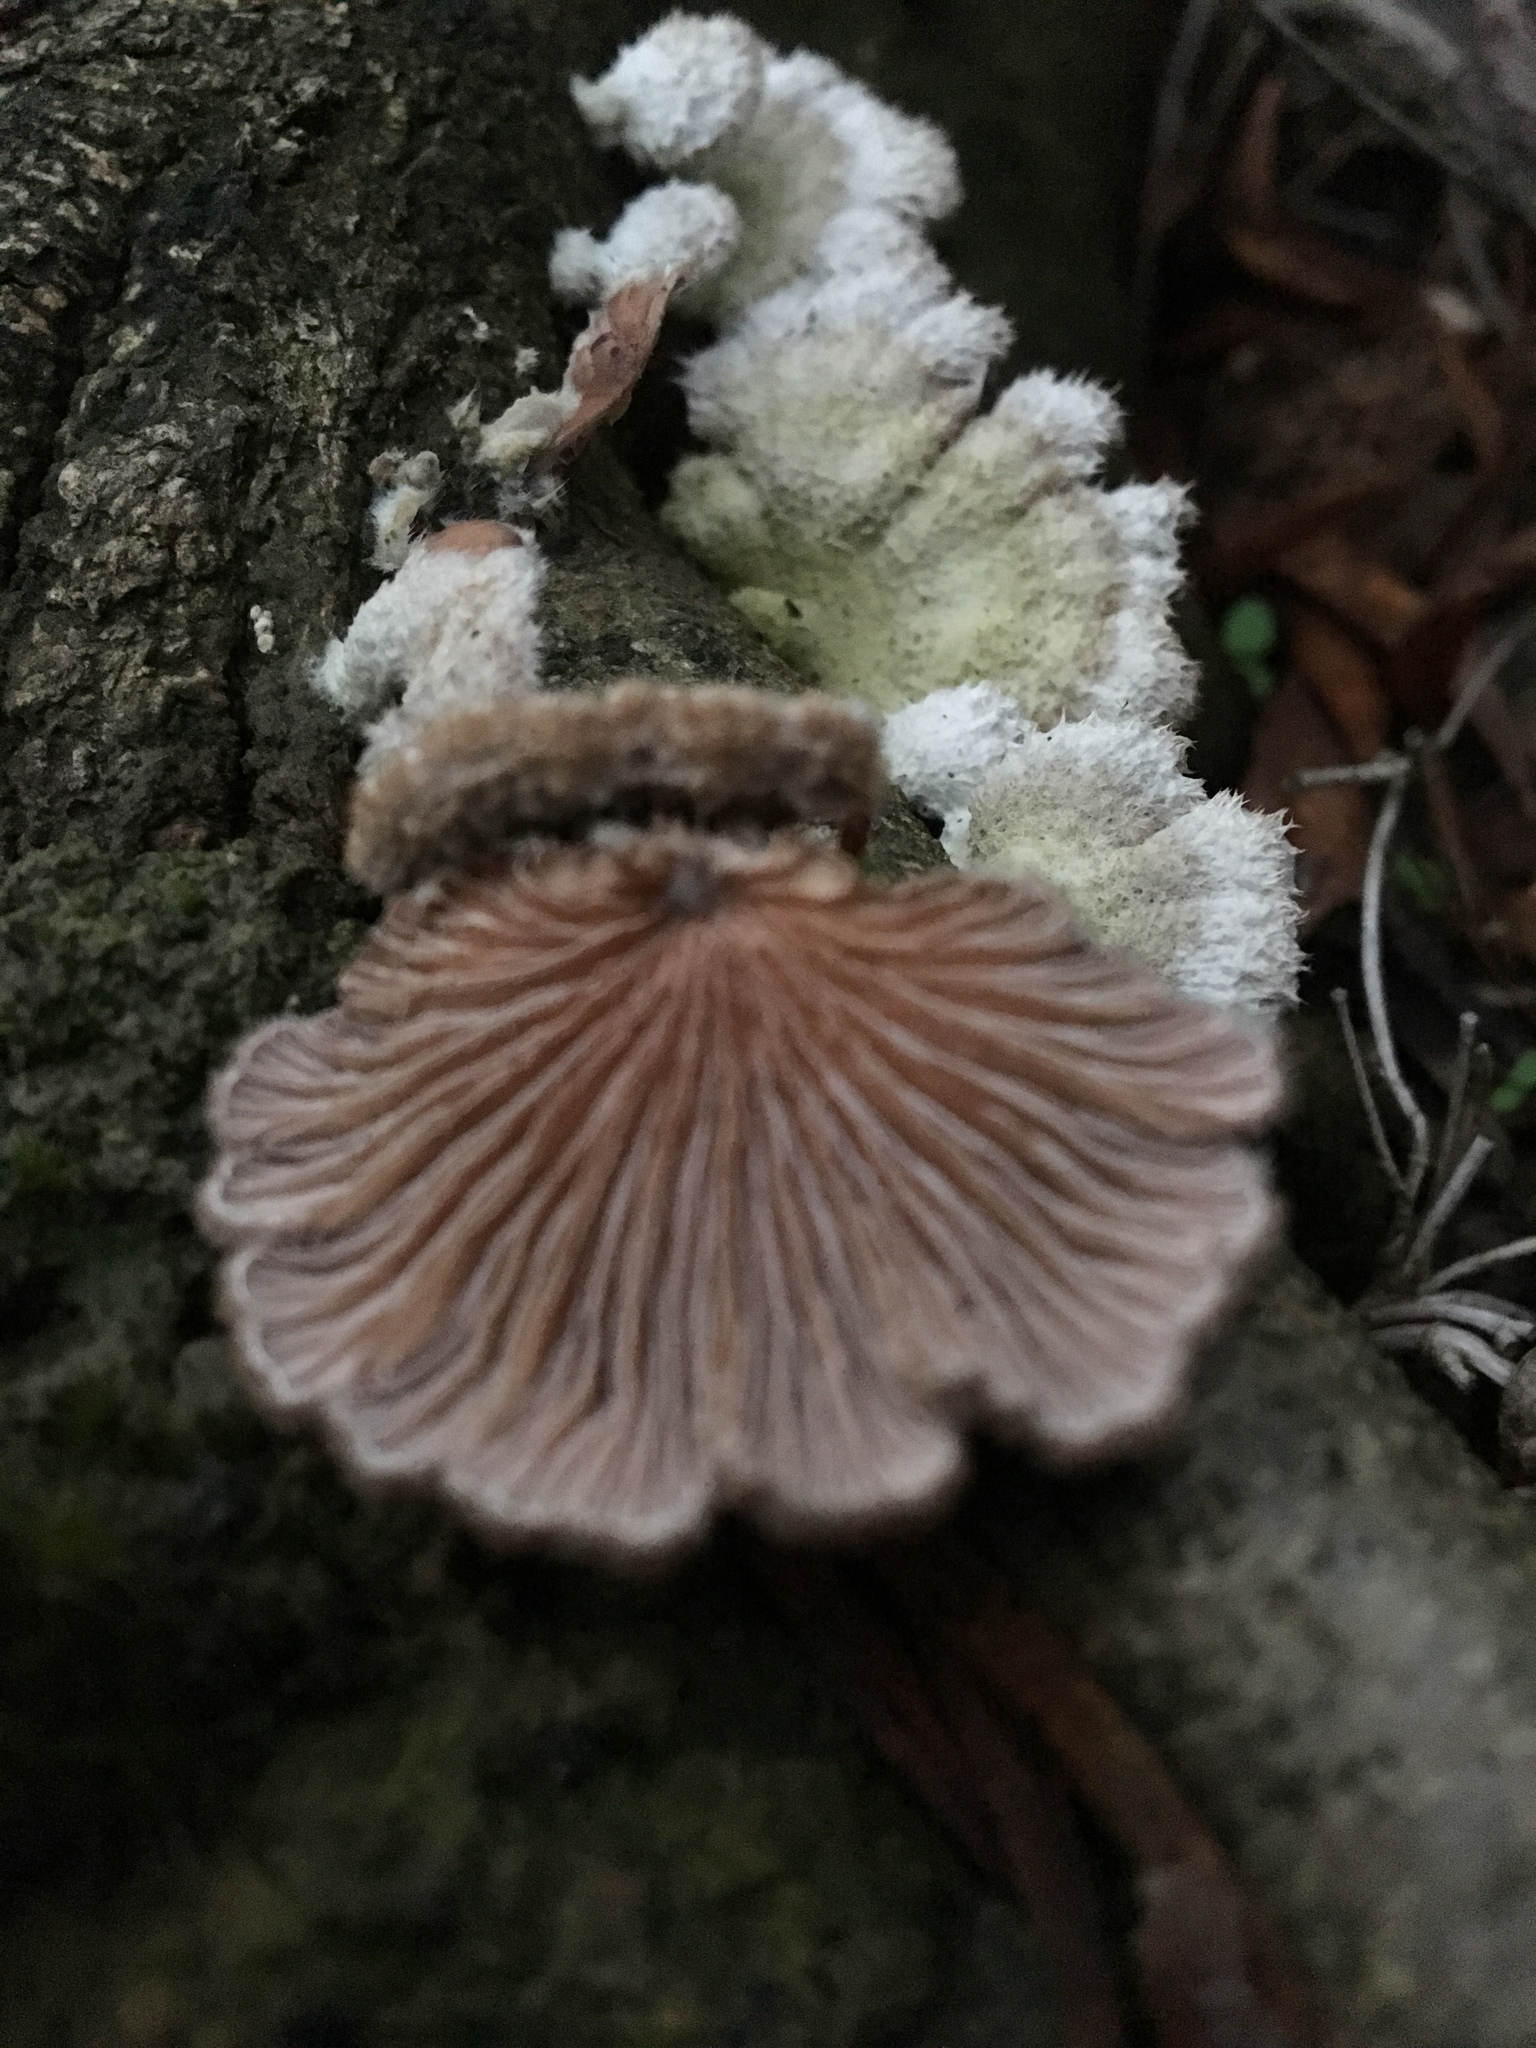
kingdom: Fungi
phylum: Basidiomycota
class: Agaricomycetes
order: Agaricales
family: Schizophyllaceae
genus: Schizophyllum
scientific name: Schizophyllum commune
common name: Common porecrust
